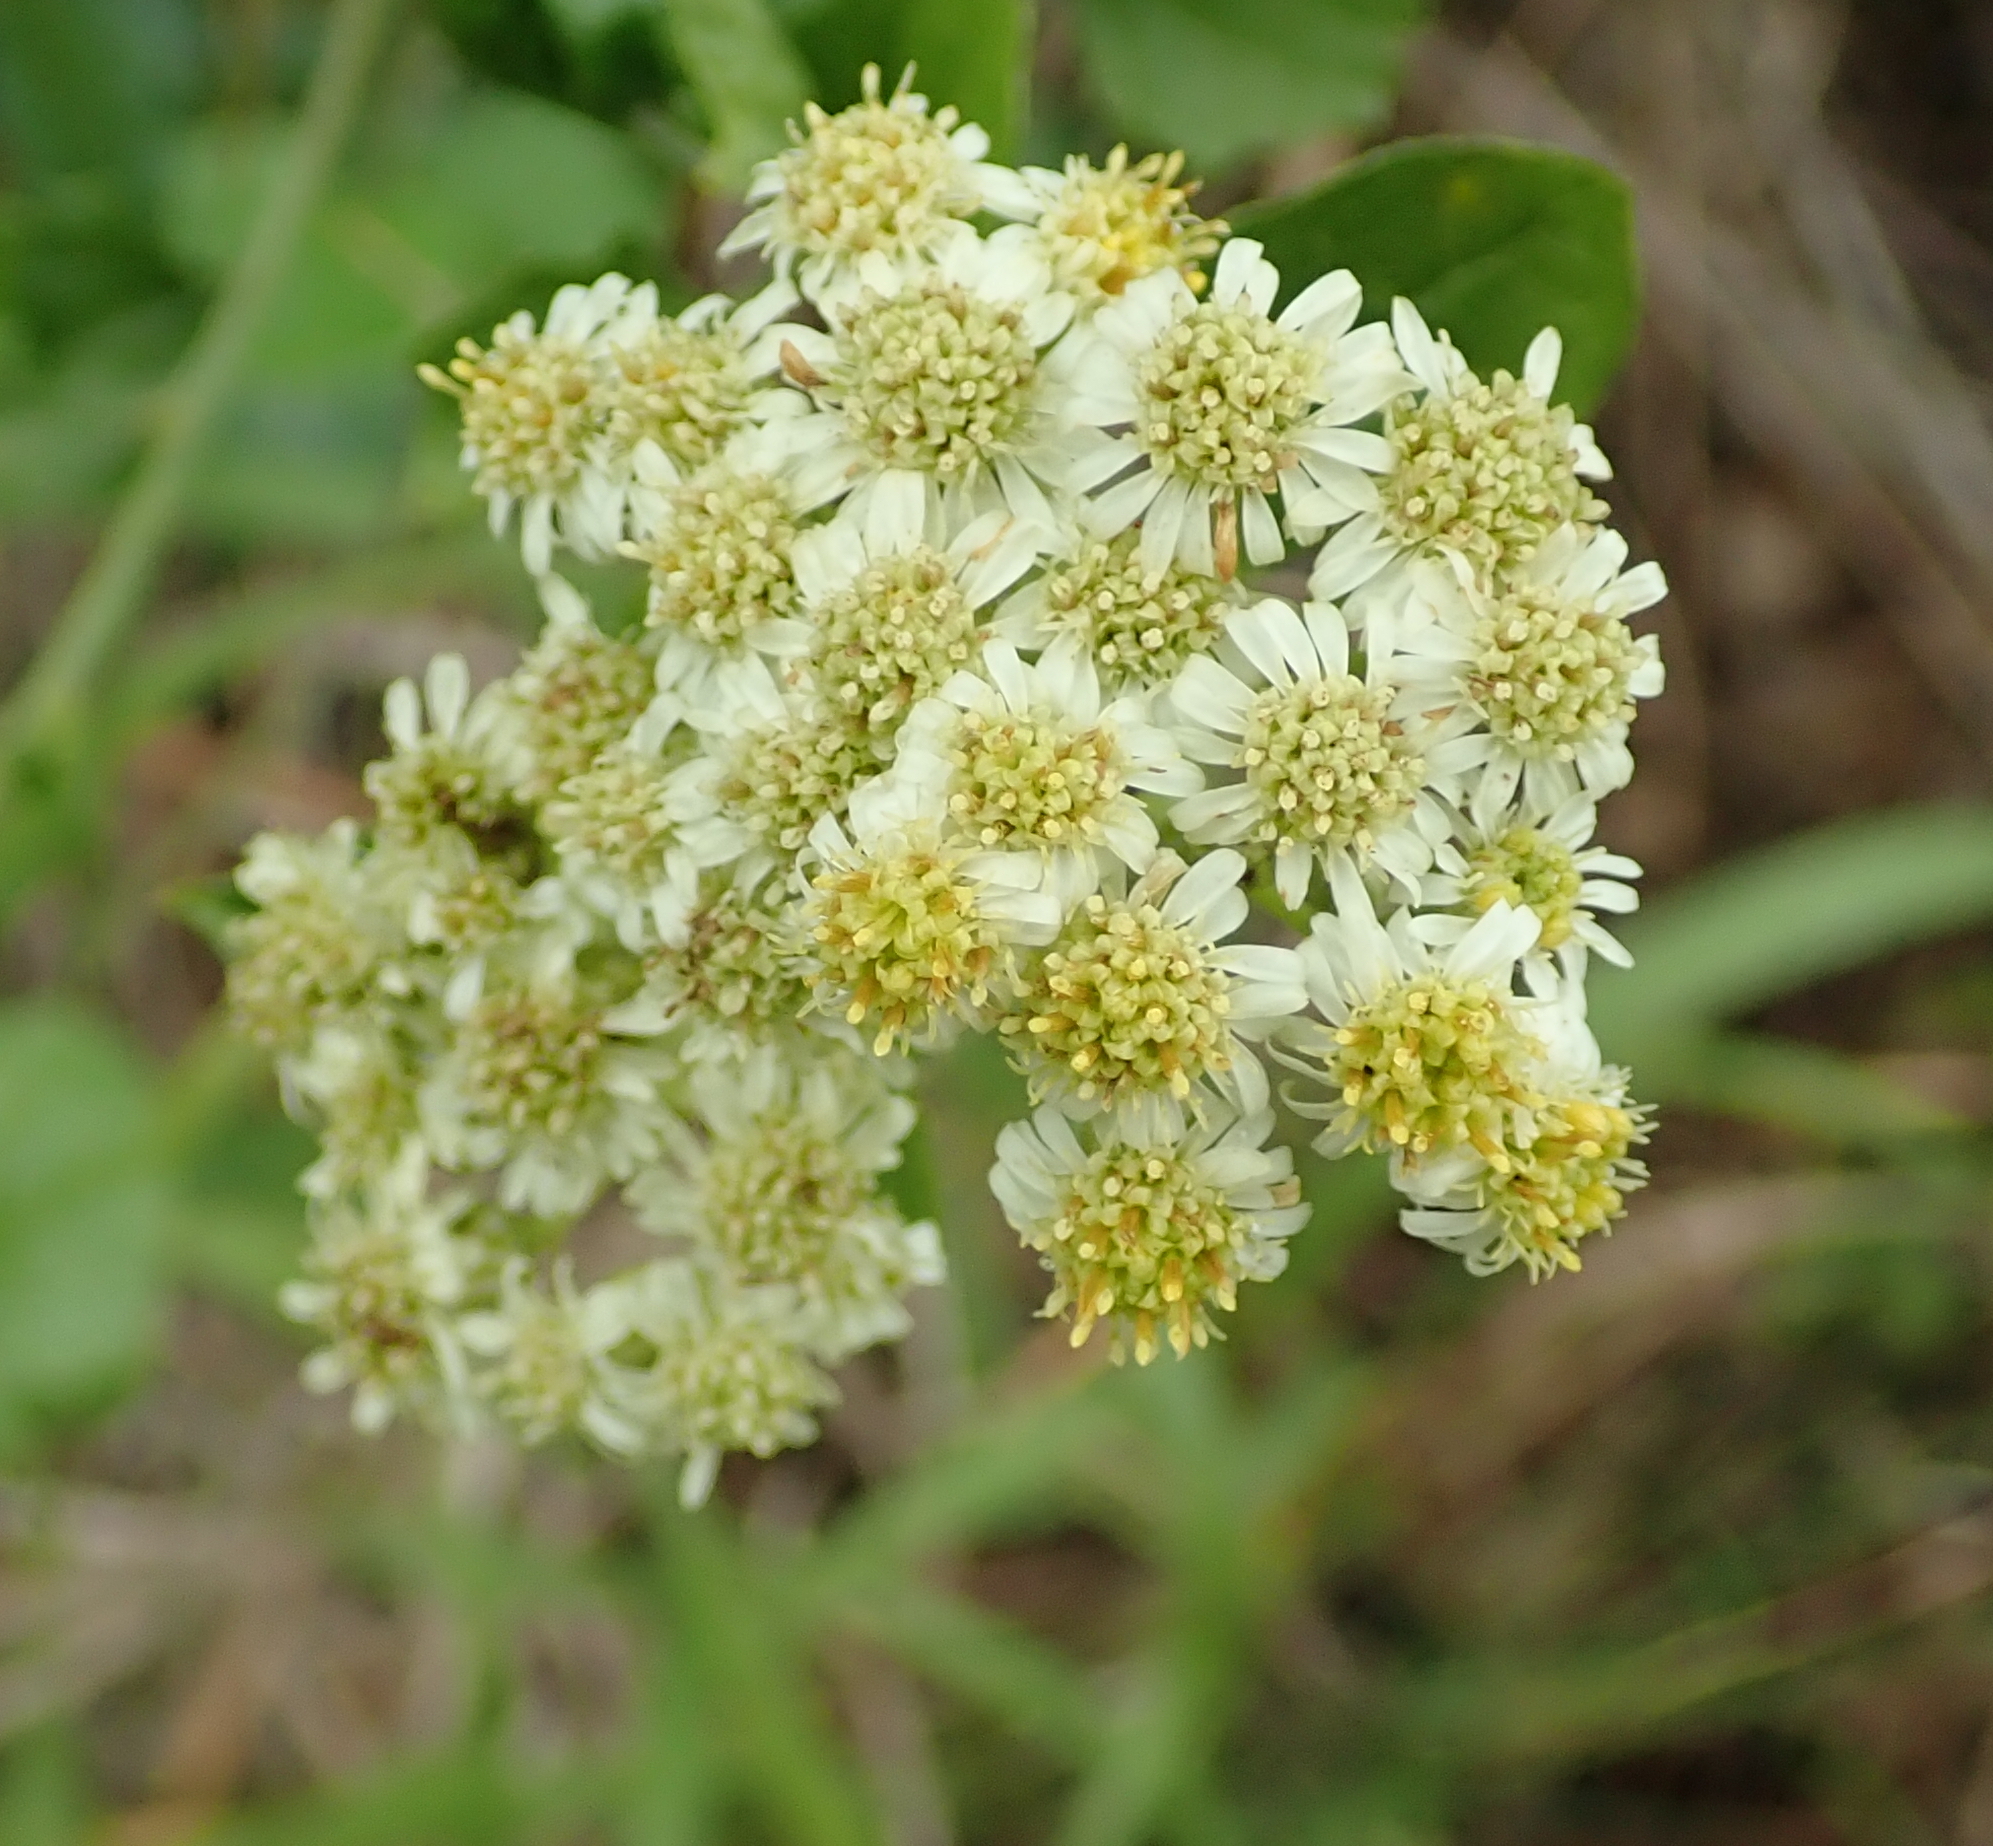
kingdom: Plantae
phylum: Tracheophyta
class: Magnoliopsida
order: Asterales
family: Asteraceae
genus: Microglossa
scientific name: Microglossa mespilifolia
